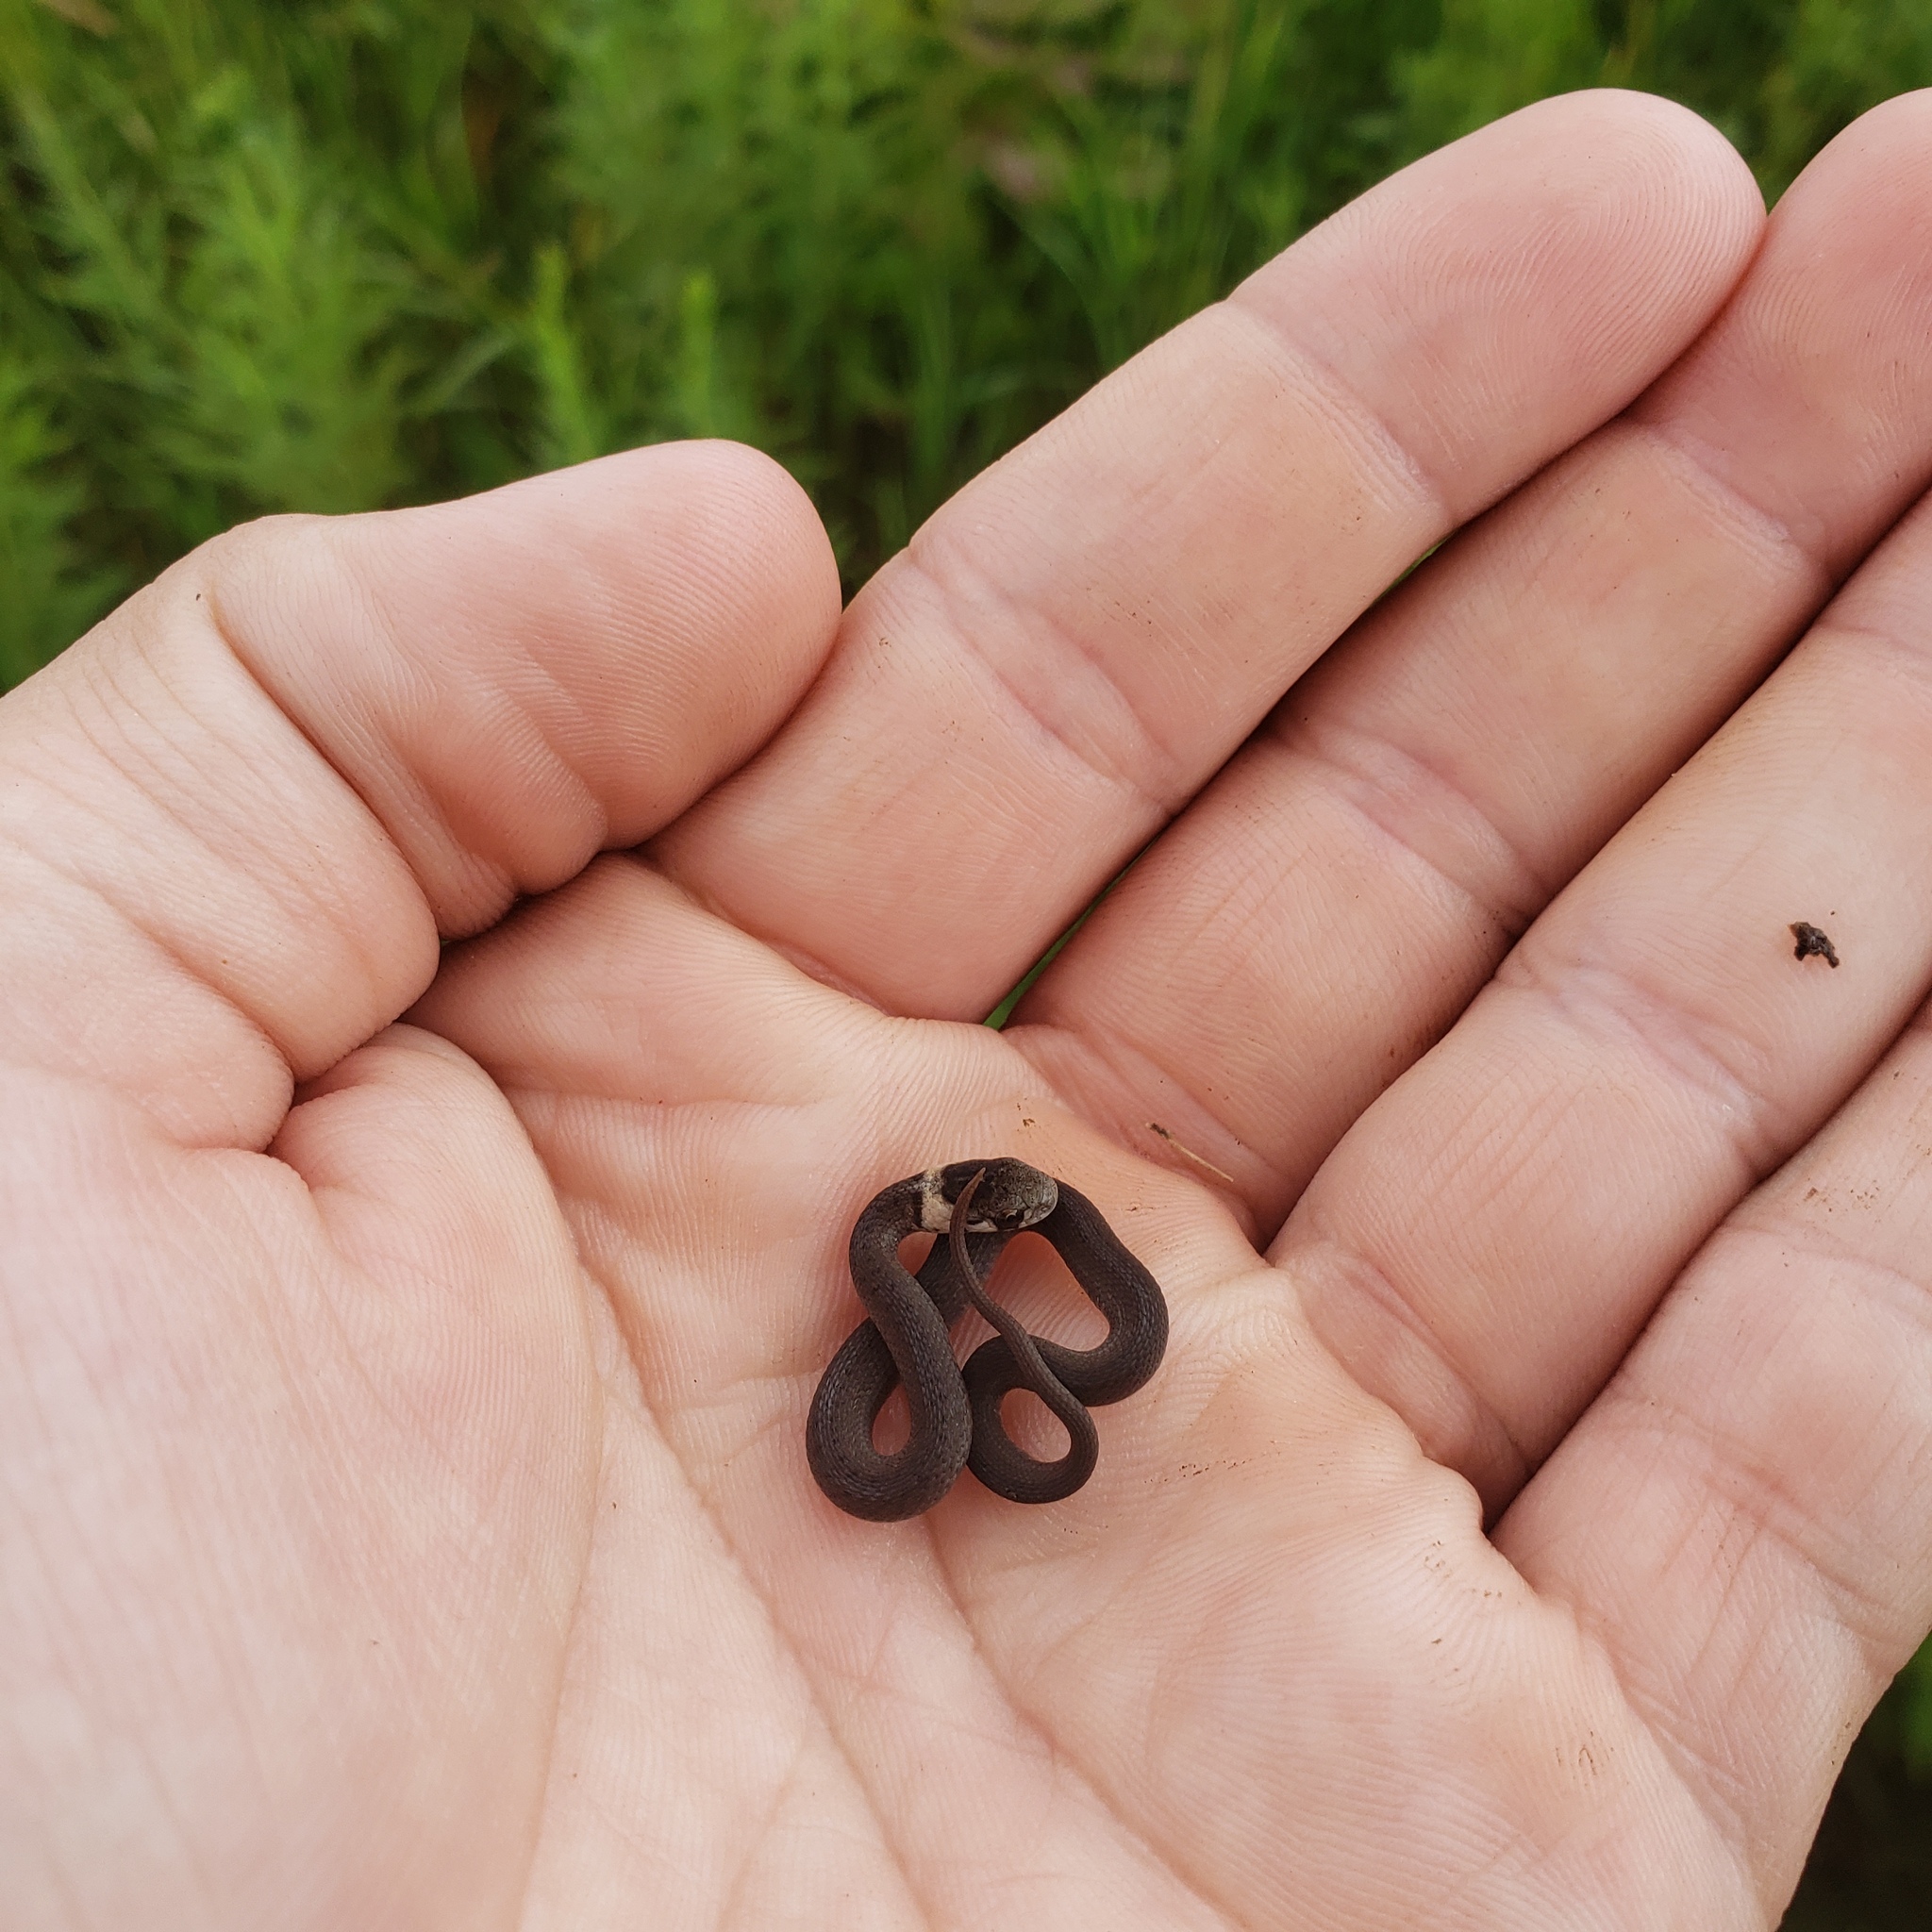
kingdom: Animalia
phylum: Chordata
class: Squamata
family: Colubridae
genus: Storeria
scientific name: Storeria dekayi
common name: (dekay’s) brown snake
